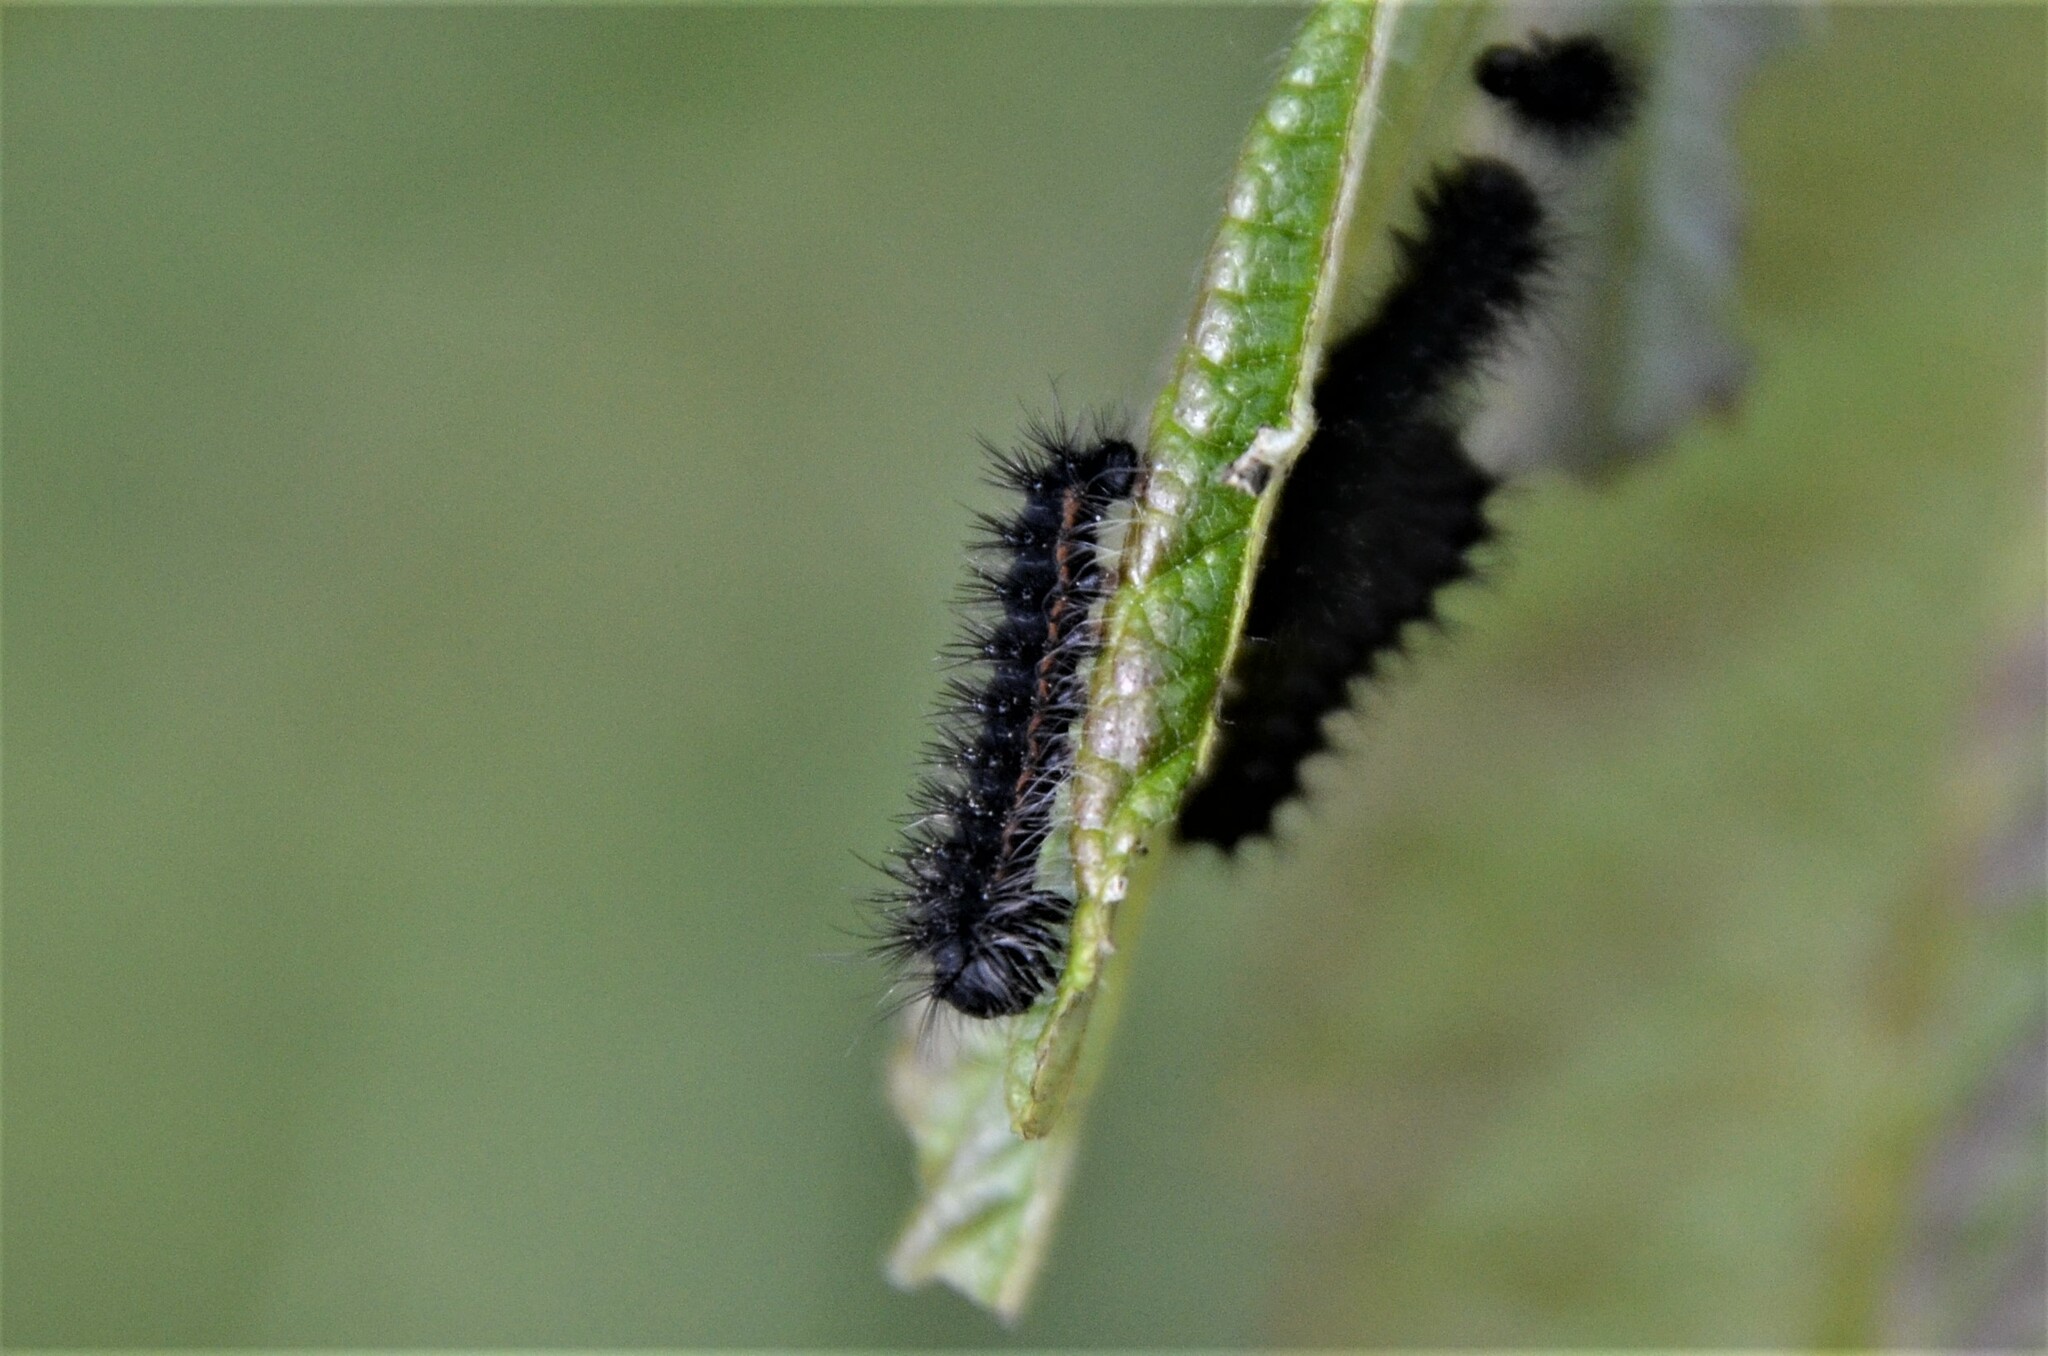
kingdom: Animalia
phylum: Arthropoda
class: Insecta
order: Lepidoptera
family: Saturniidae
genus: Saturnia
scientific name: Saturnia pavoniella
